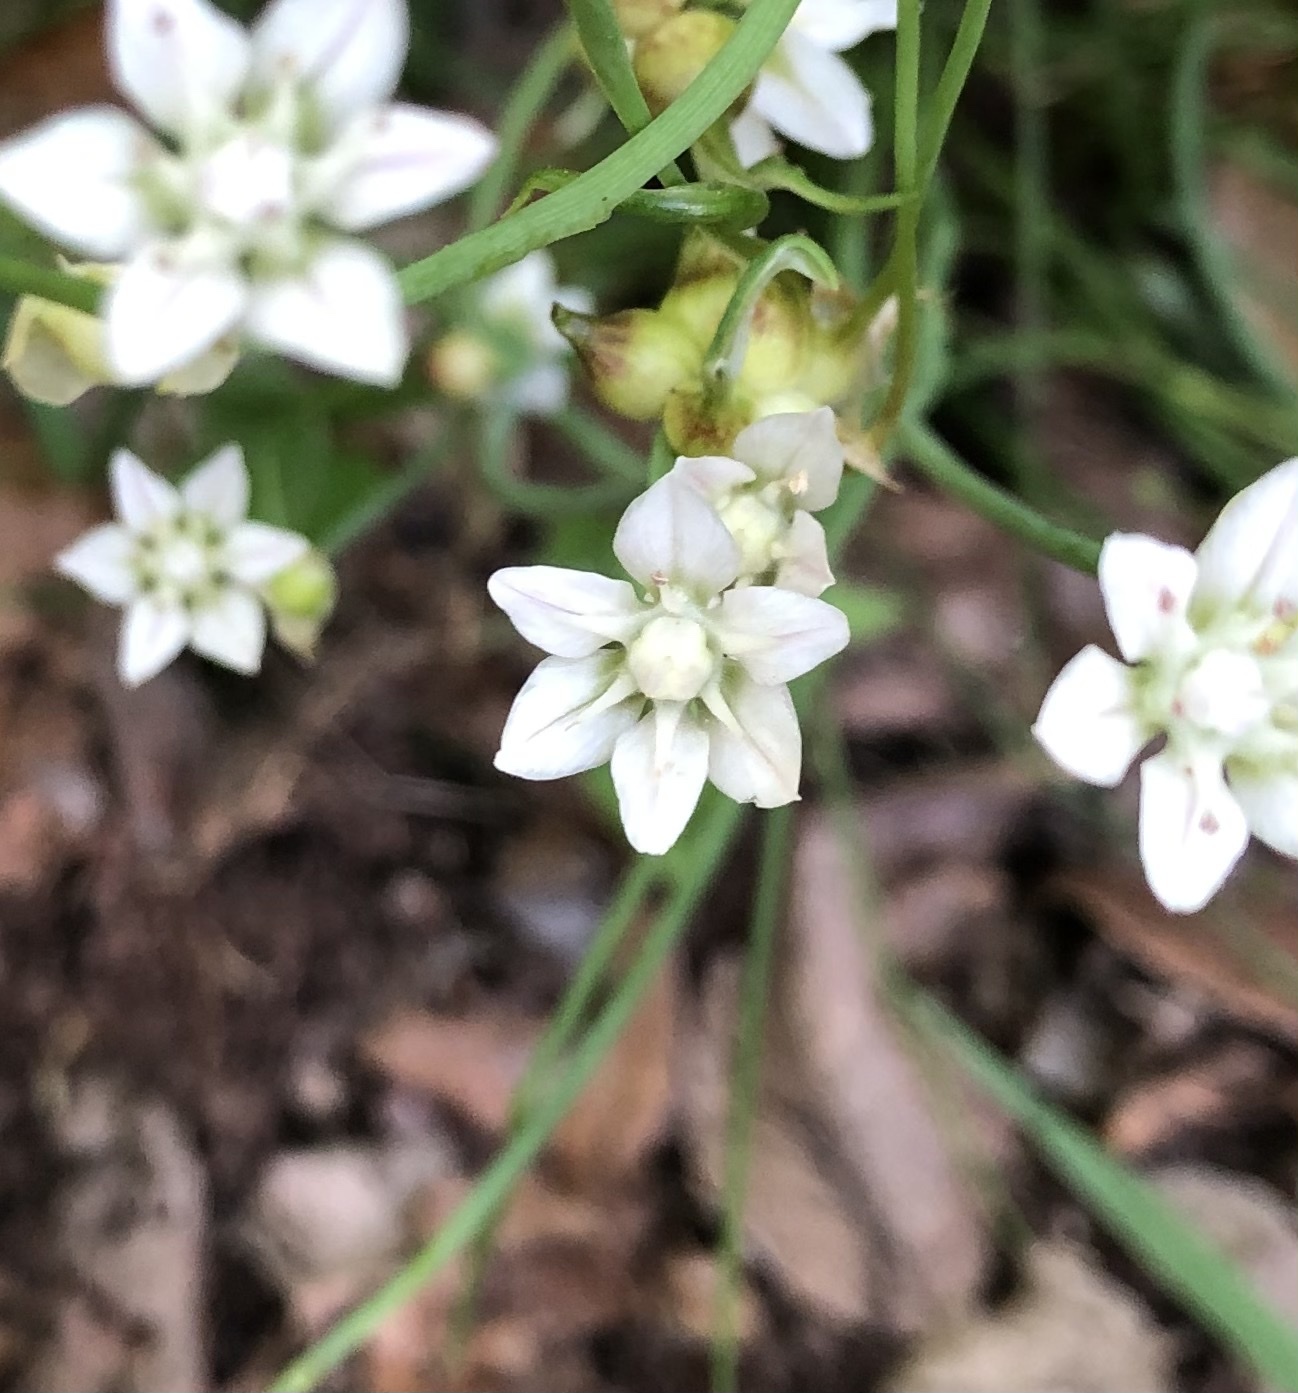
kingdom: Plantae
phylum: Tracheophyta
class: Liliopsida
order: Asparagales
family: Amaryllidaceae
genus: Allium
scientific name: Allium canadense
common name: Meadow garlic
